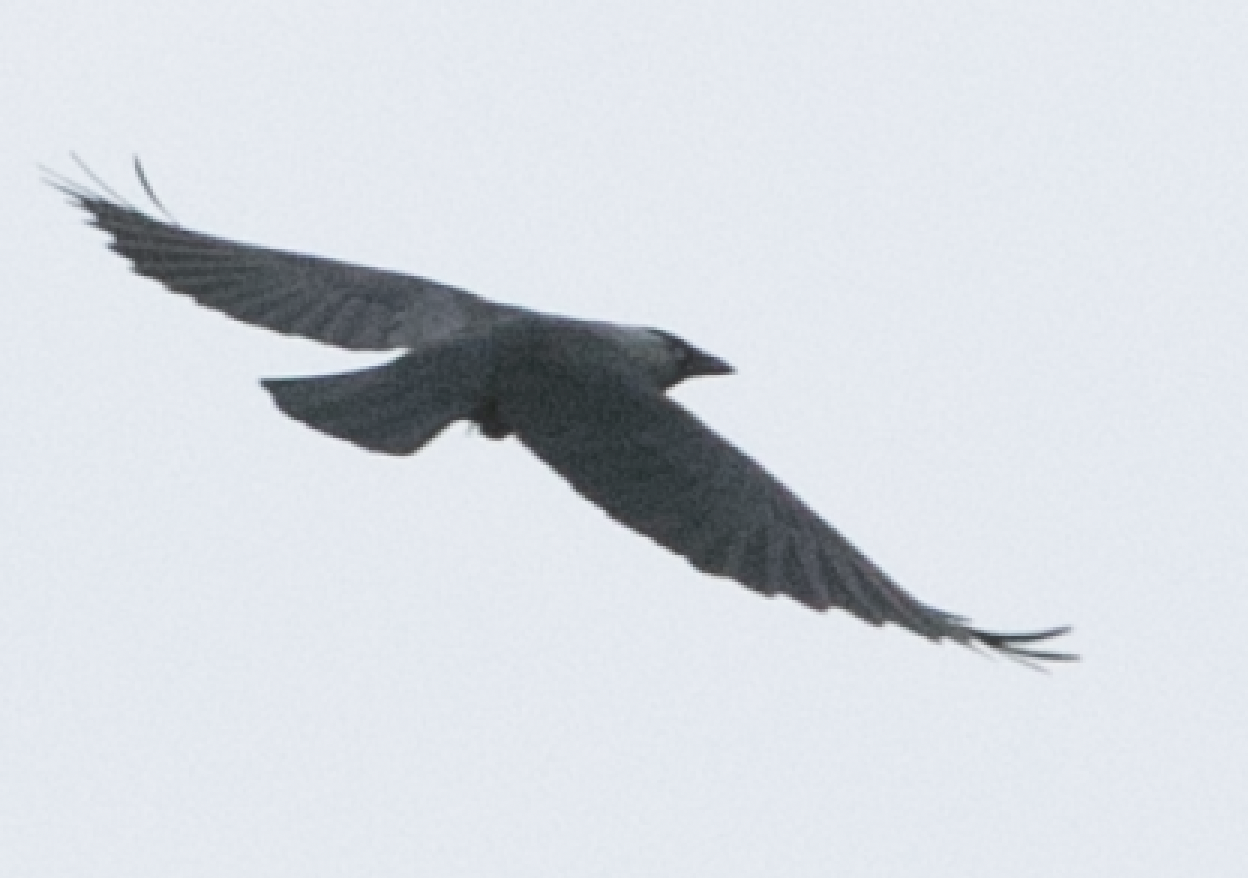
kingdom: Animalia
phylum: Chordata
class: Aves
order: Passeriformes
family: Corvidae
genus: Coloeus
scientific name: Coloeus monedula
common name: Western jackdaw
